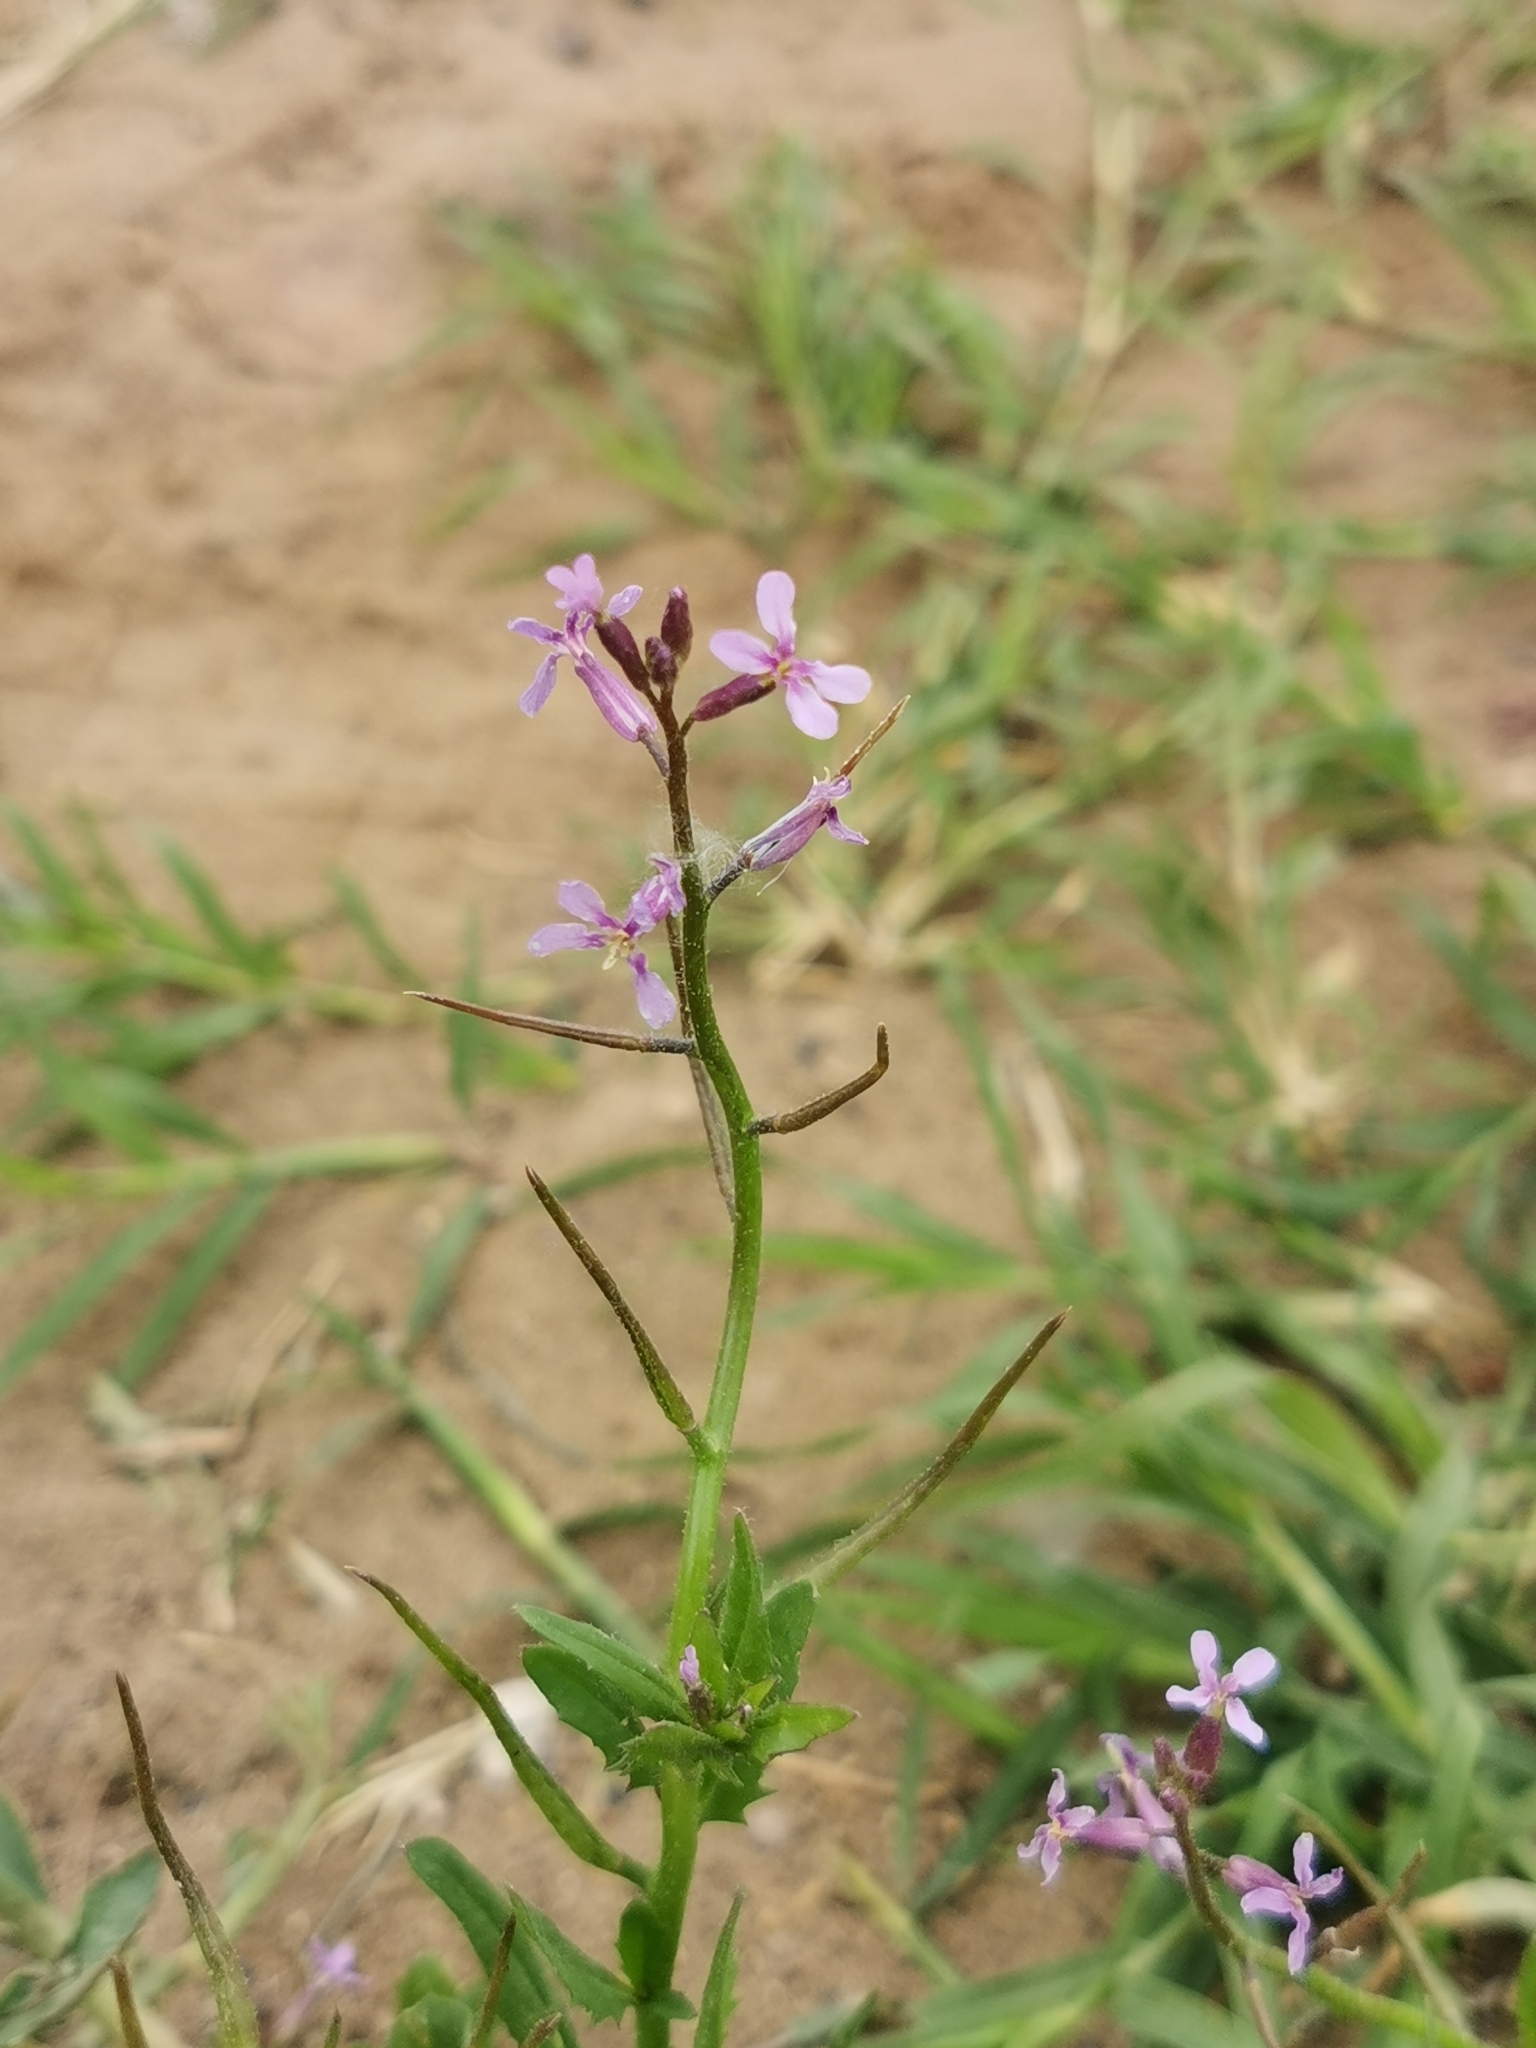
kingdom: Plantae
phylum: Tracheophyta
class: Magnoliopsida
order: Brassicales
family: Brassicaceae
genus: Chorispora
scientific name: Chorispora tenella
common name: Crossflower
